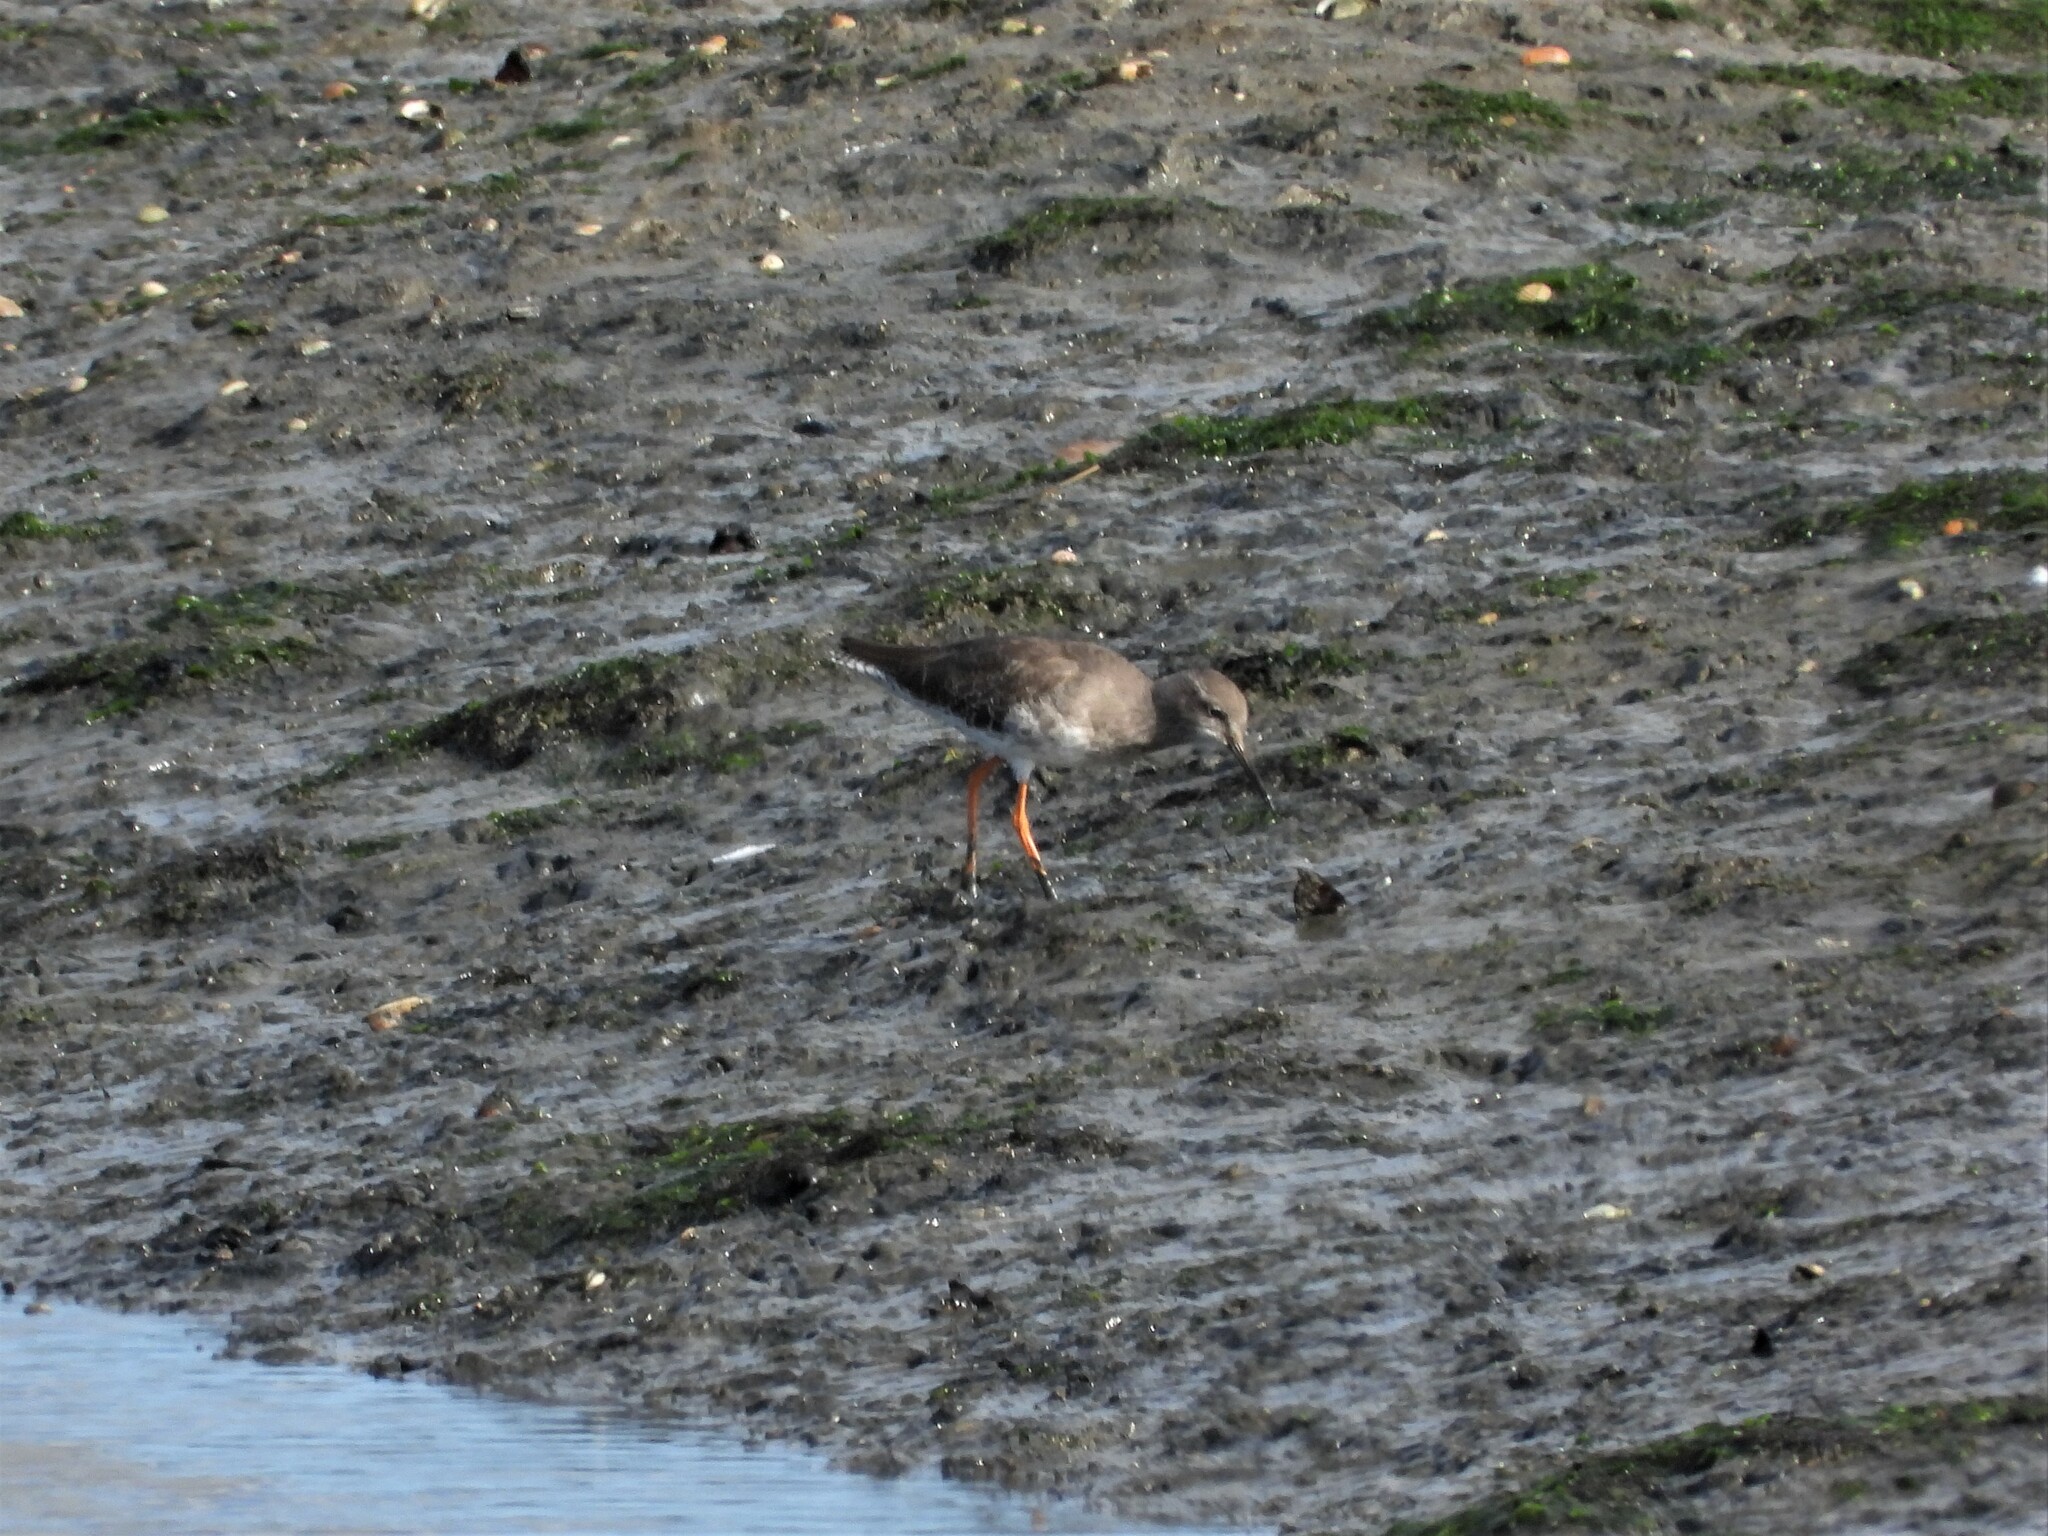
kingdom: Animalia
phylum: Chordata
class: Aves
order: Charadriiformes
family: Scolopacidae
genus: Tringa
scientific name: Tringa totanus
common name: Common redshank
